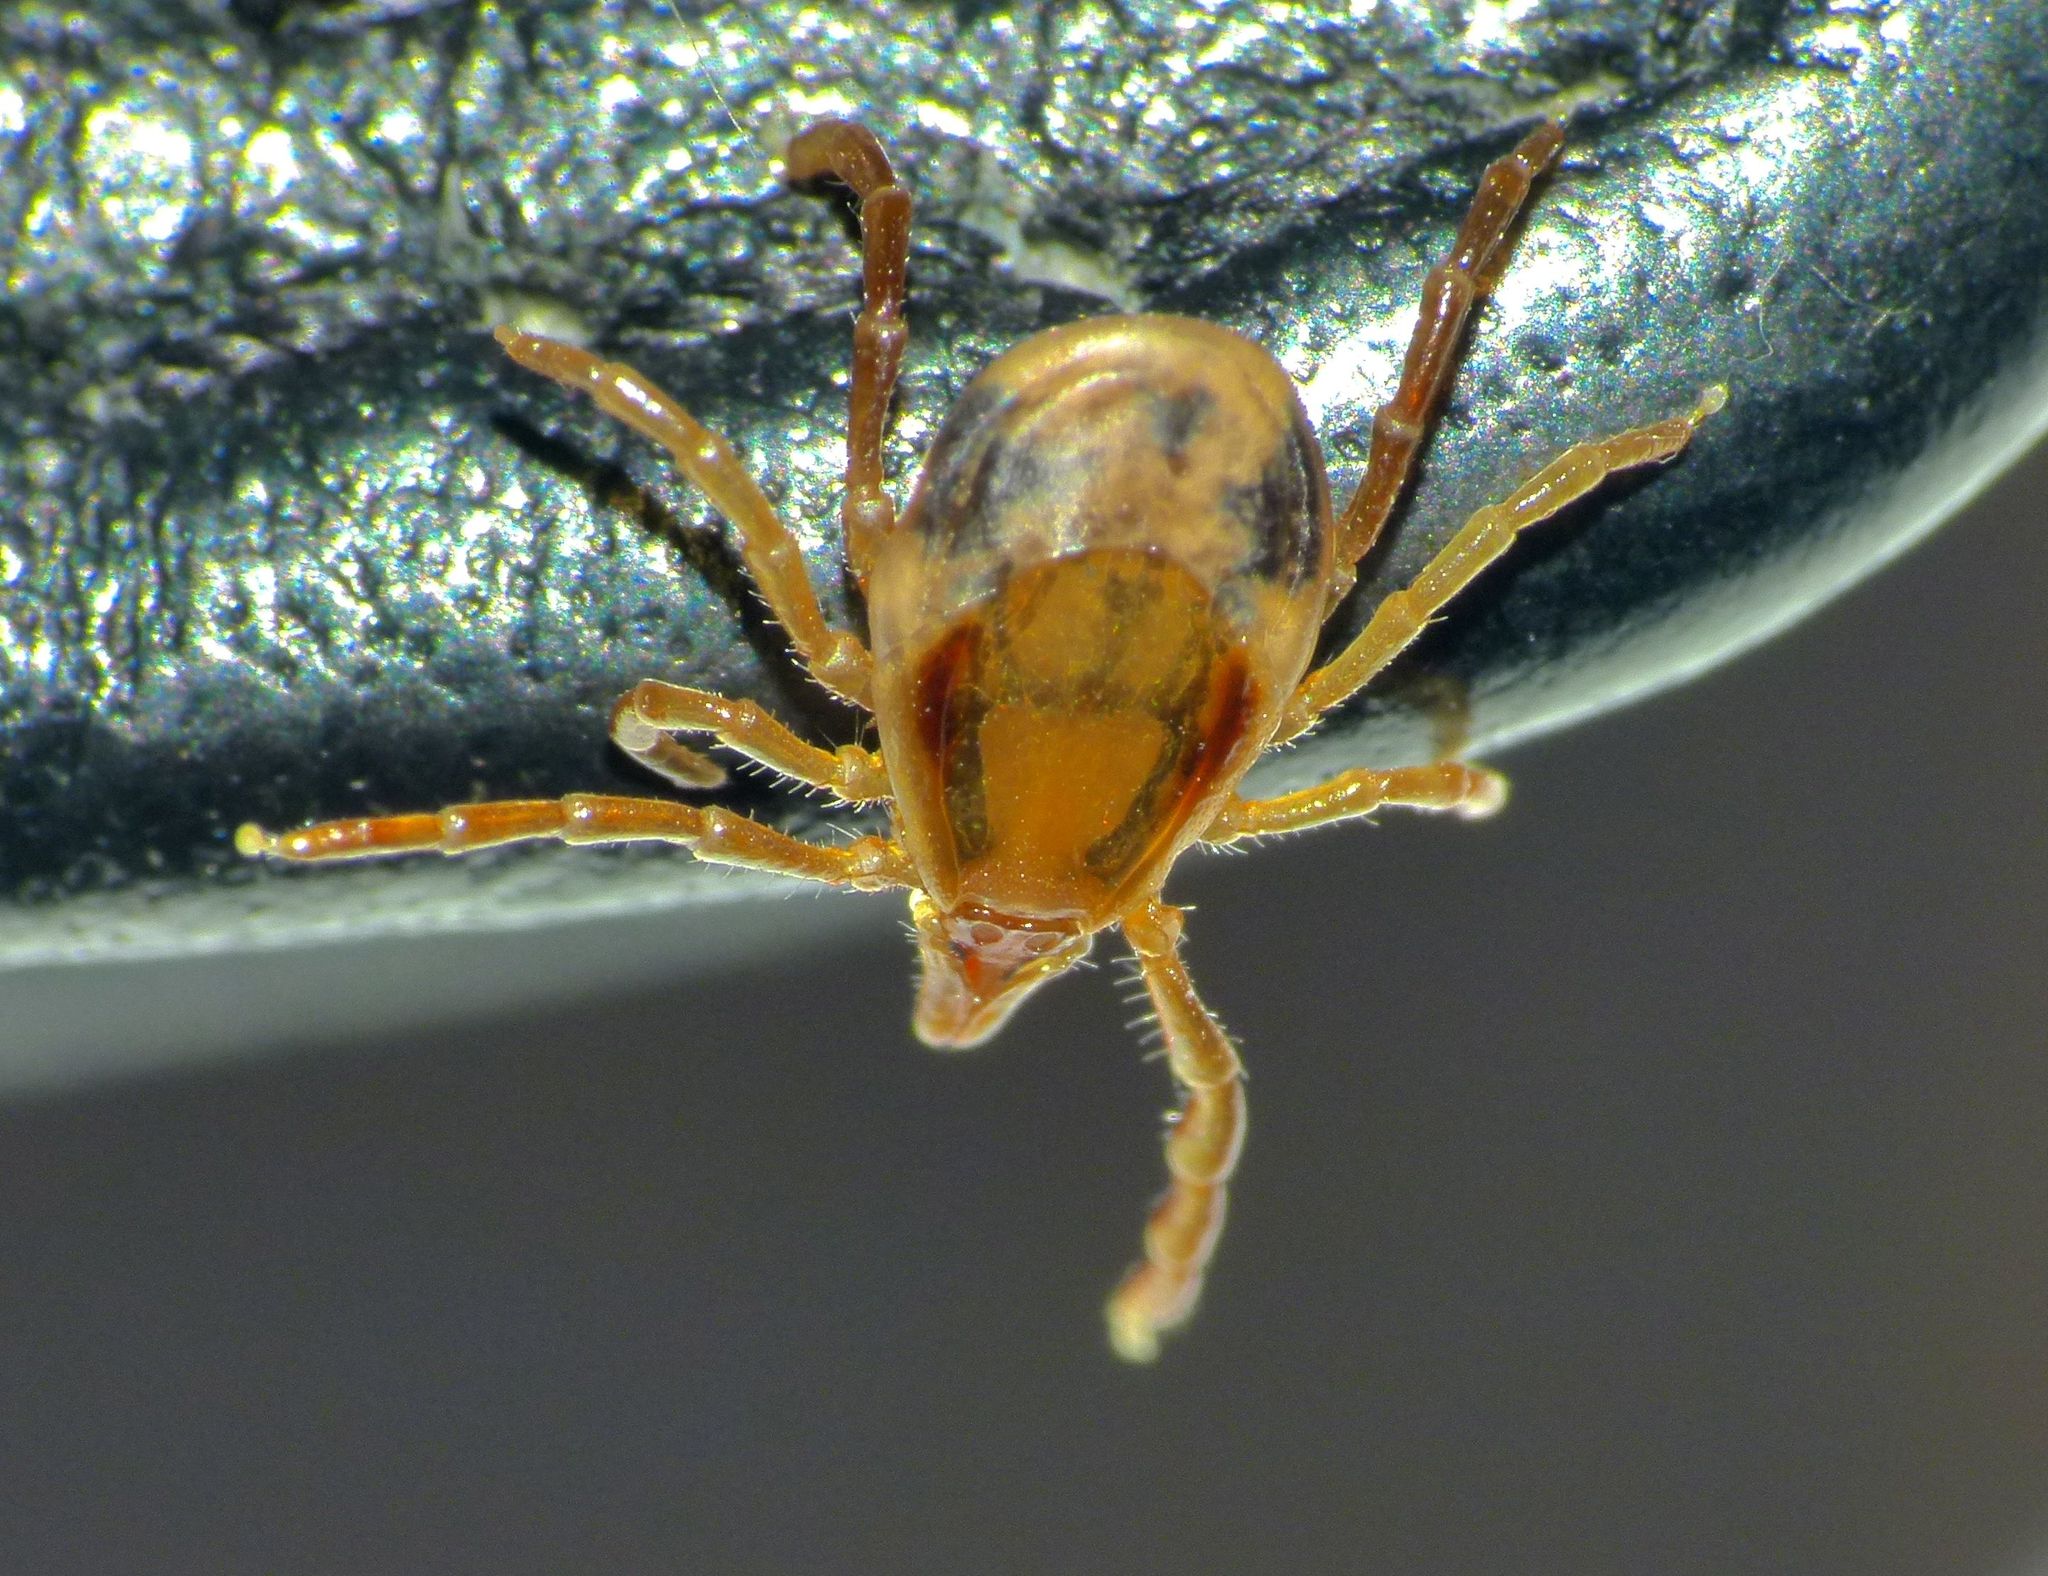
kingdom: Animalia
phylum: Arthropoda
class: Arachnida
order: Ixodida
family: Ixodidae
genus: Ixodes
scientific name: Ixodes holocyclus
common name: Australian paralysis tick
